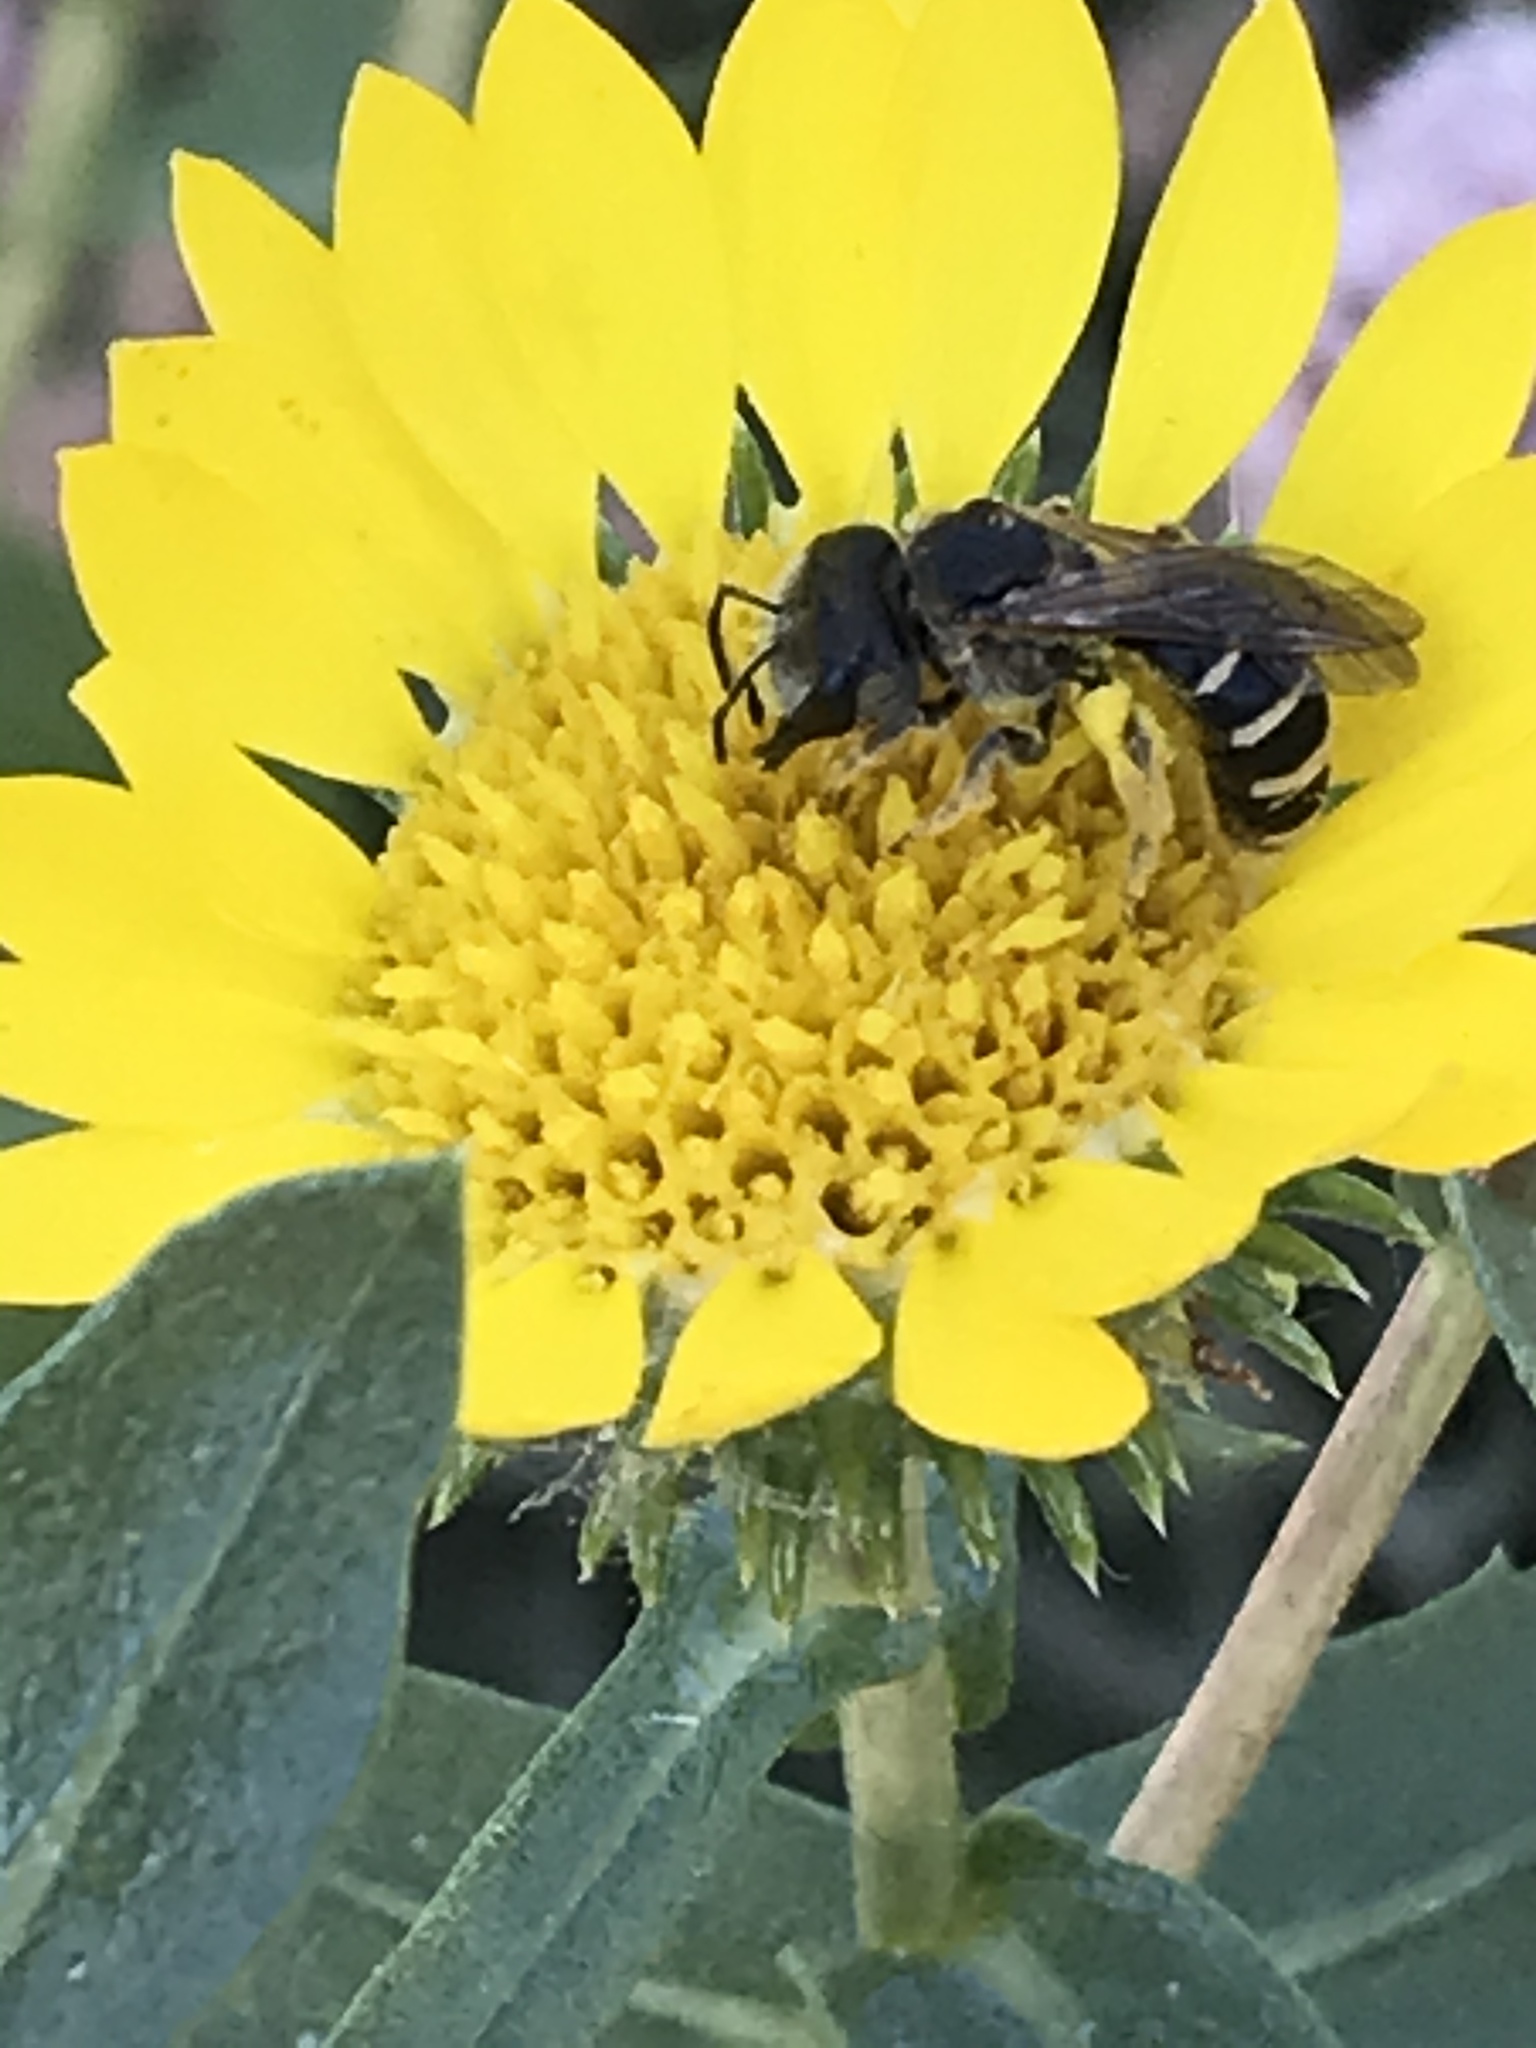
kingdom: Animalia
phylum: Arthropoda
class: Insecta
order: Hymenoptera
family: Halictidae
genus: Halictus
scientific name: Halictus ligatus
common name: Ligated furrow bee
